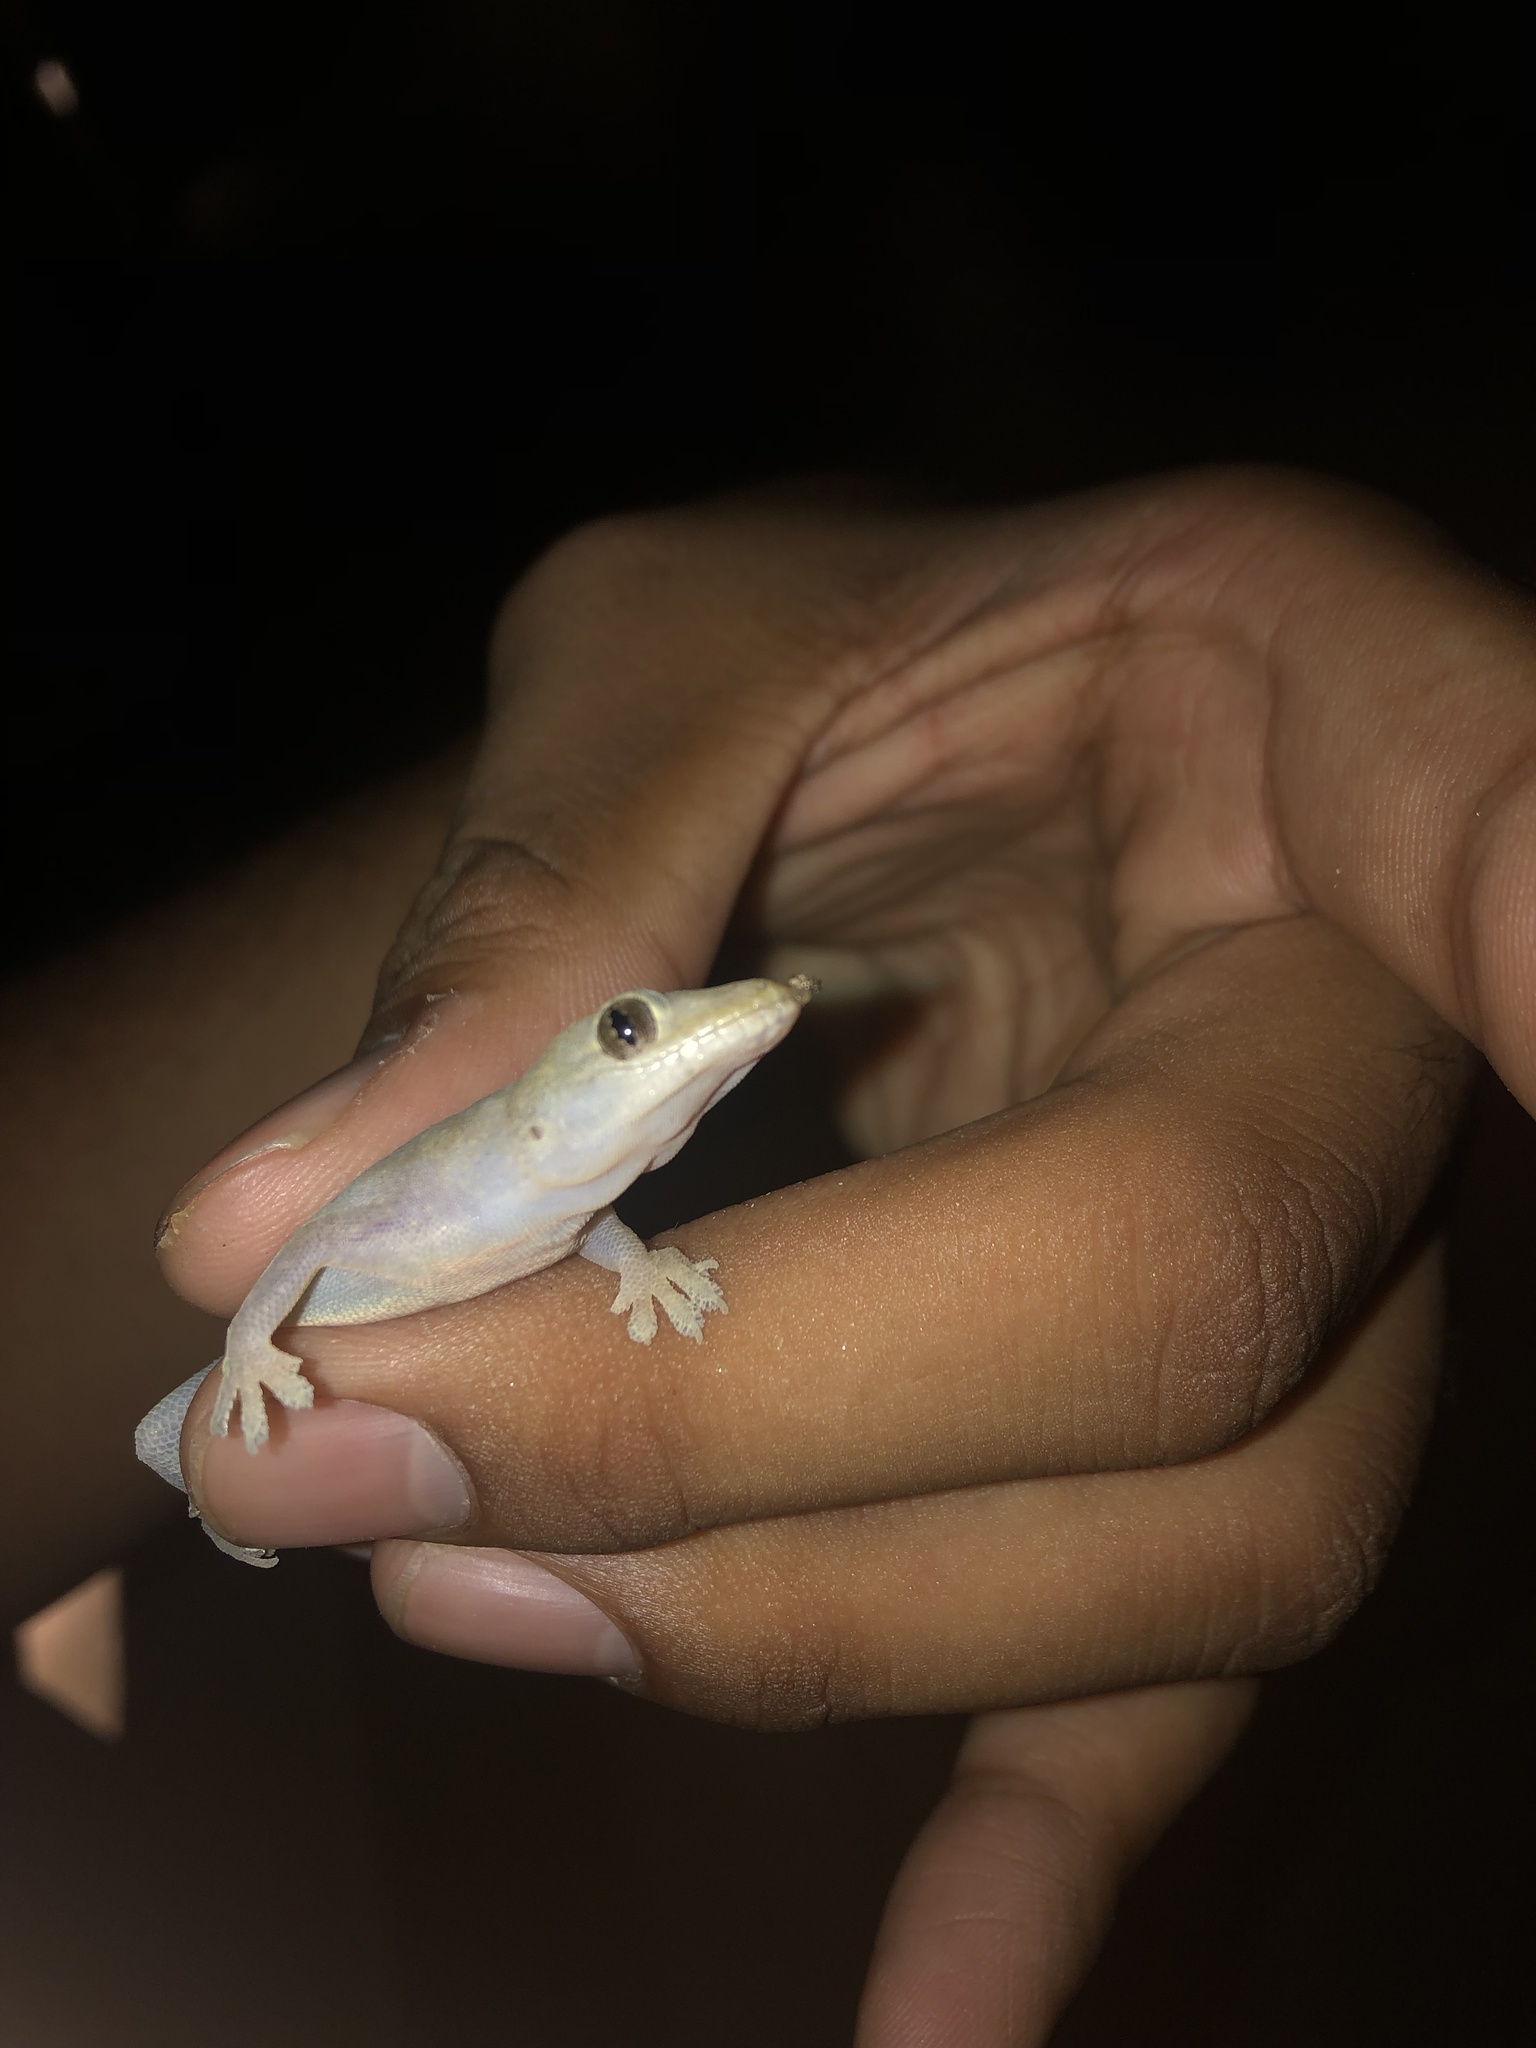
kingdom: Animalia
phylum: Chordata
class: Squamata
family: Gekkonidae
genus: Hemidactylus
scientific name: Hemidactylus frenatus
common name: Common house gecko
